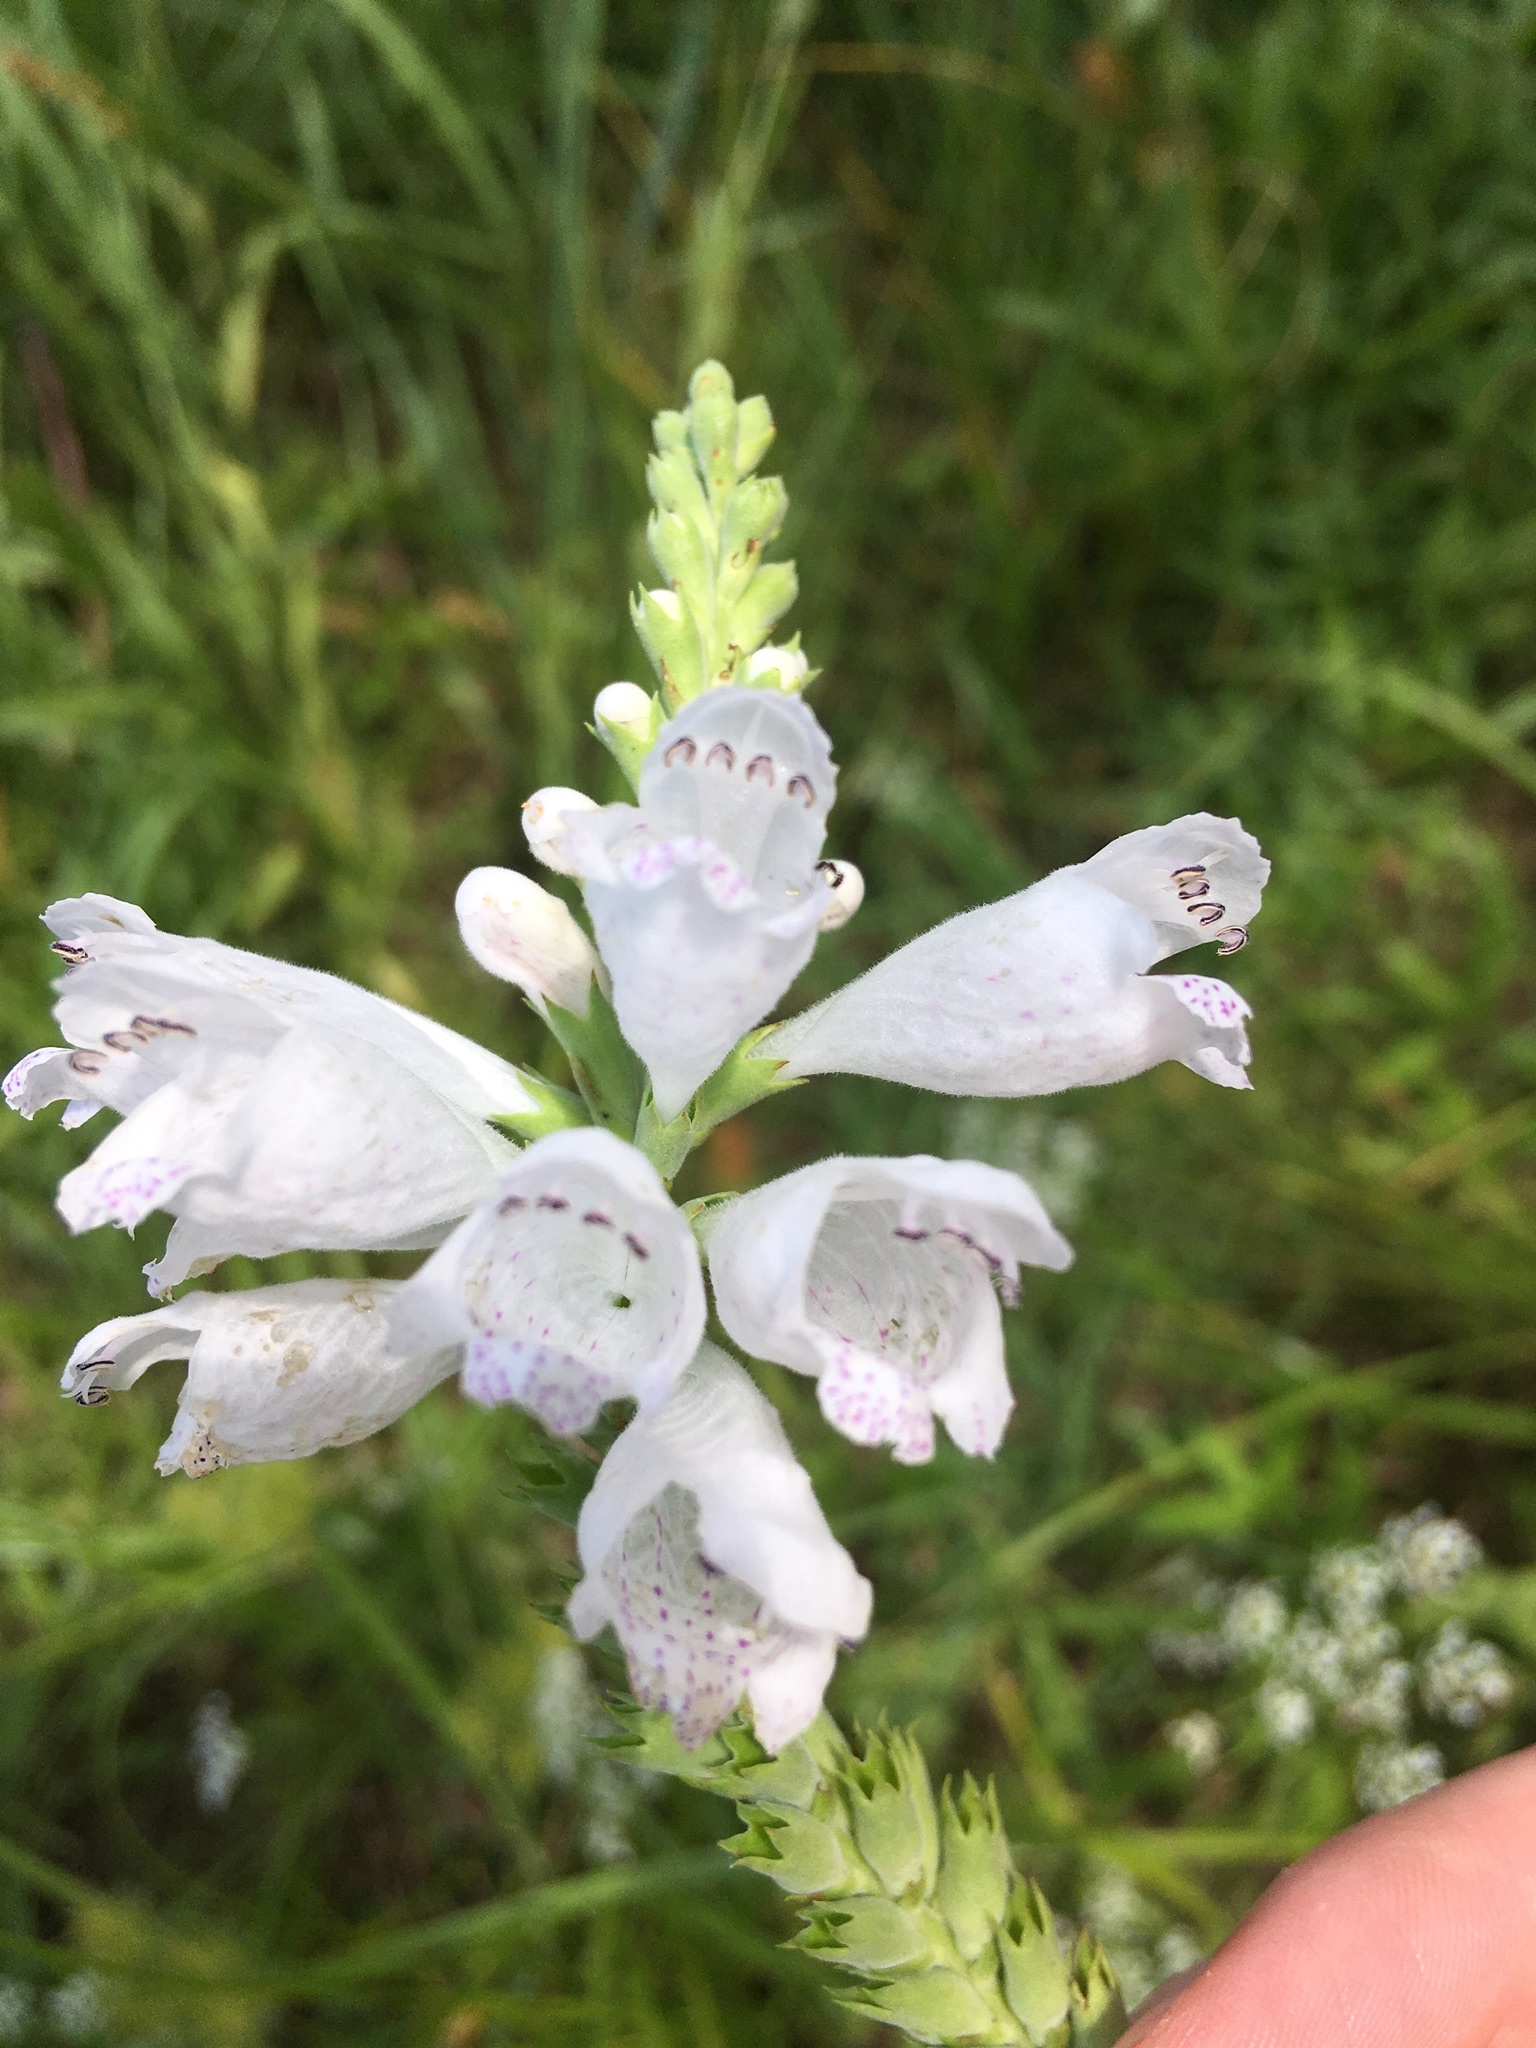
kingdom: Plantae
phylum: Tracheophyta
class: Magnoliopsida
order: Lamiales
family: Lamiaceae
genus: Physostegia
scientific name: Physostegia angustifolia
